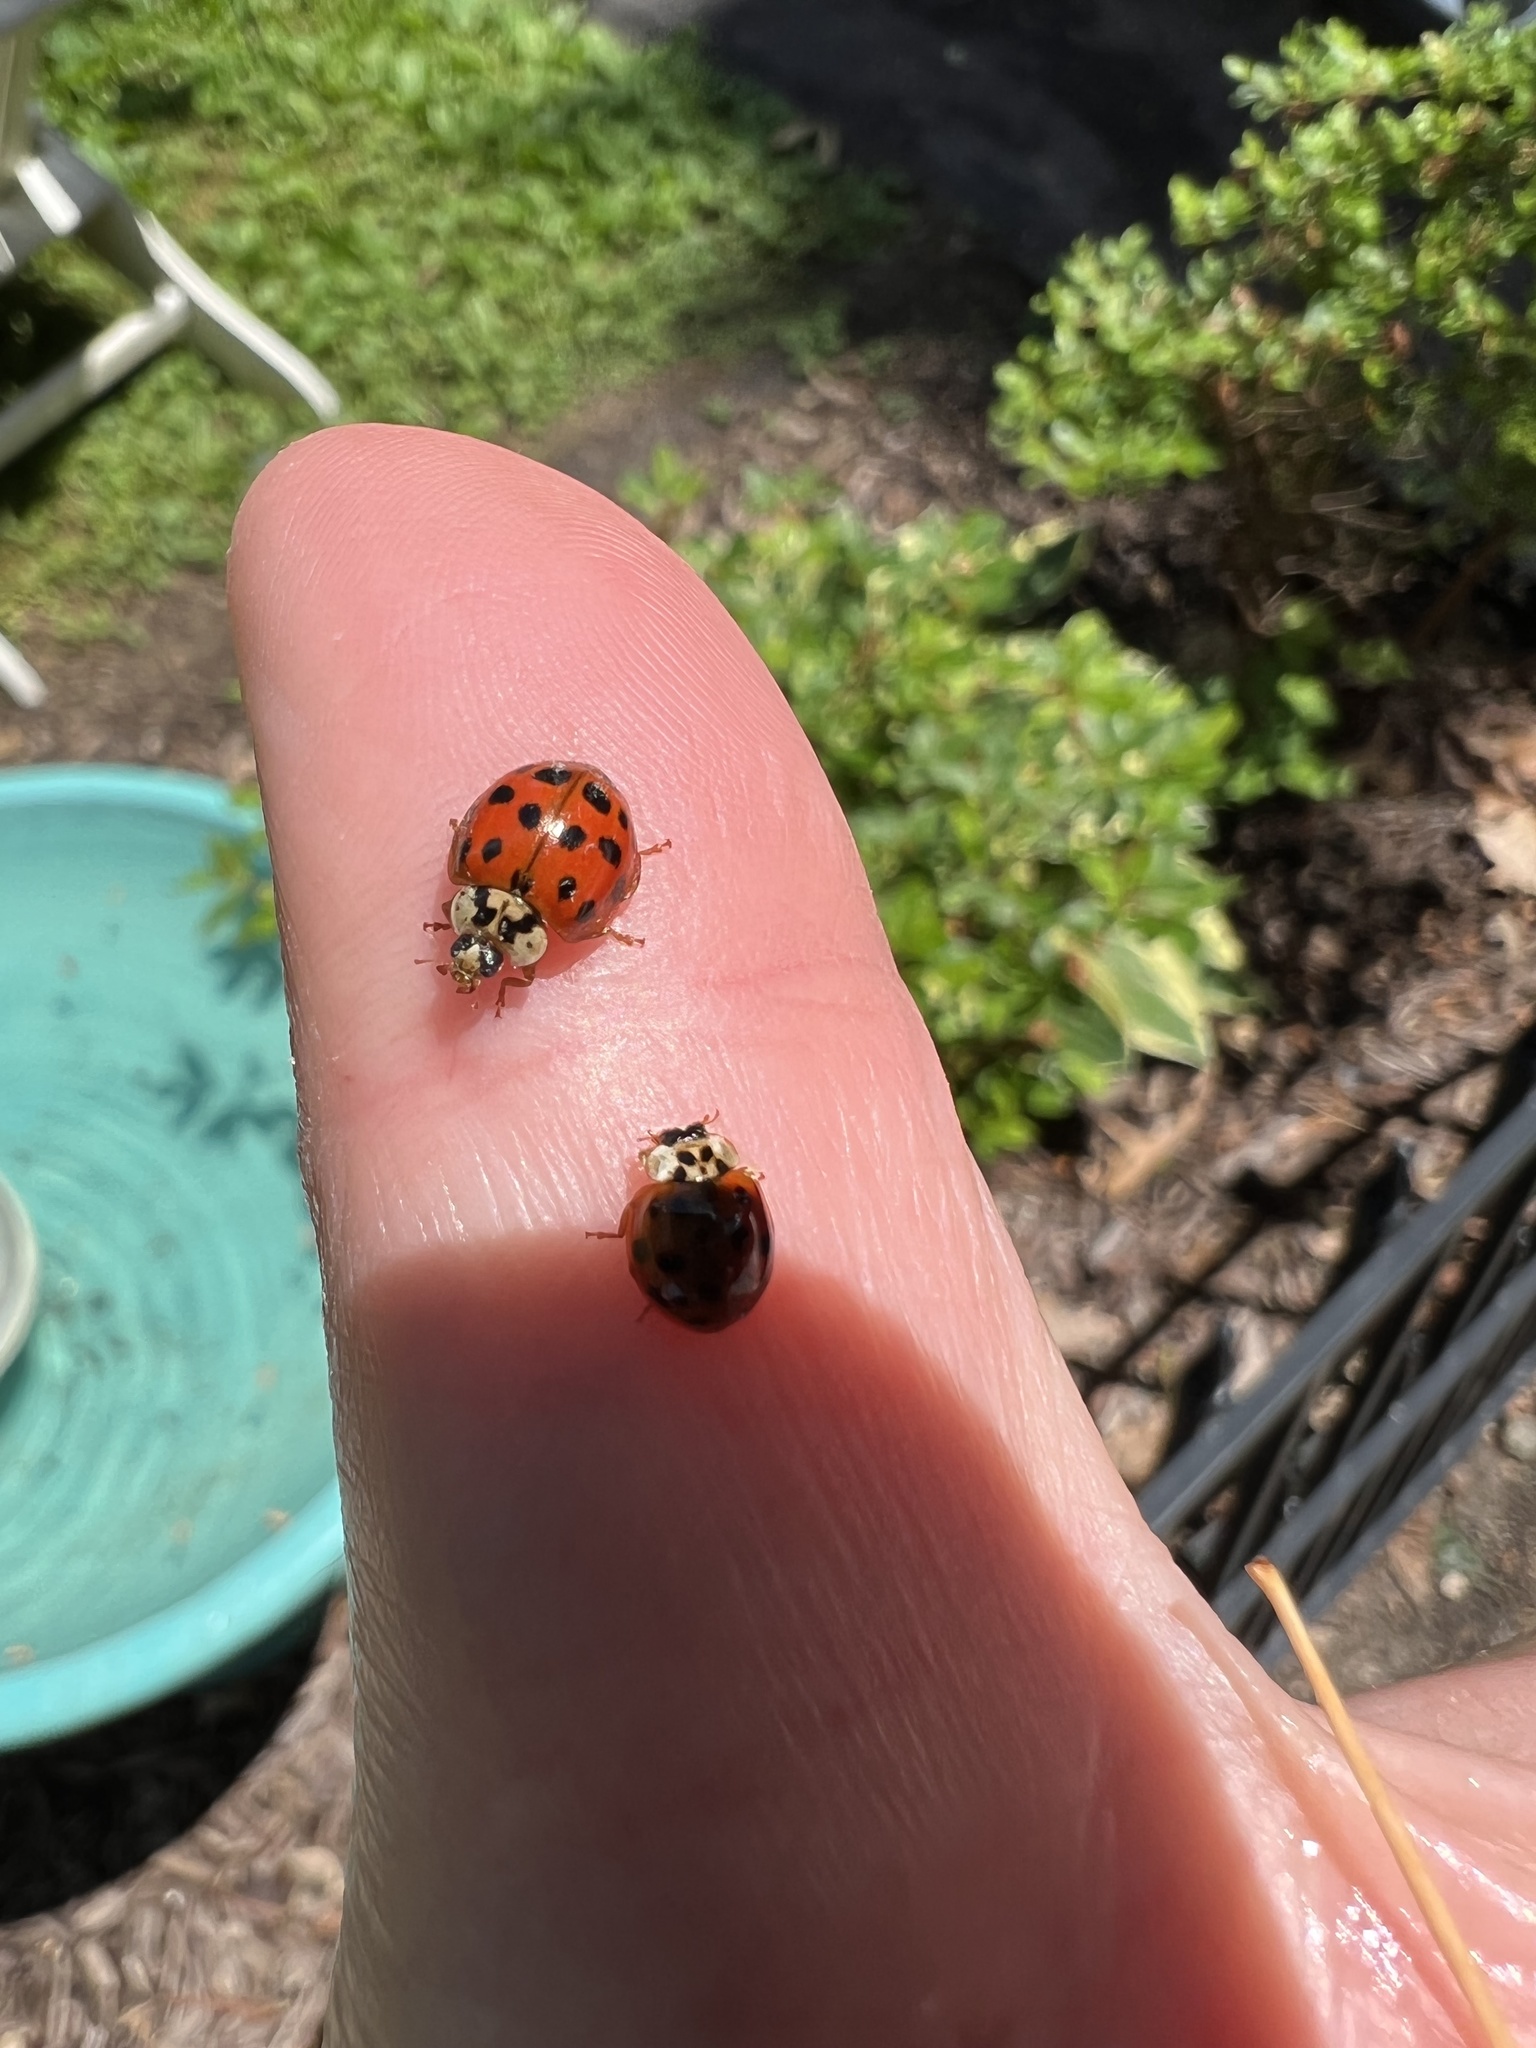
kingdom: Animalia
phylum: Arthropoda
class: Insecta
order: Coleoptera
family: Coccinellidae
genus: Harmonia
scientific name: Harmonia axyridis
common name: Harlequin ladybird
